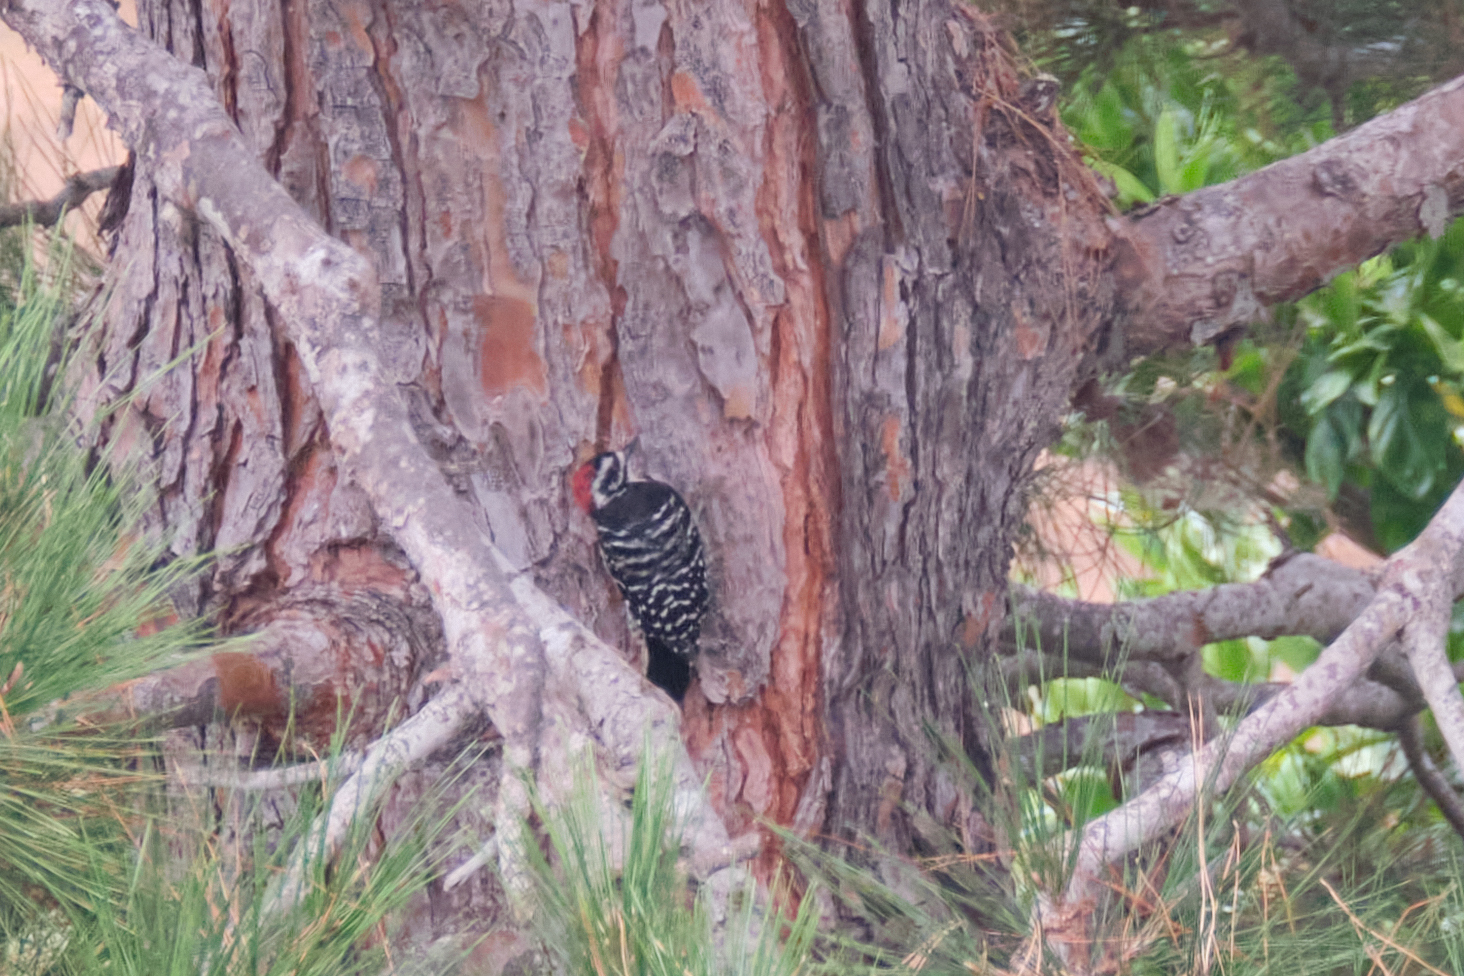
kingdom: Animalia
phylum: Chordata
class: Aves
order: Piciformes
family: Picidae
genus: Dryobates
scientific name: Dryobates nuttallii
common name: Nuttall's woodpecker
